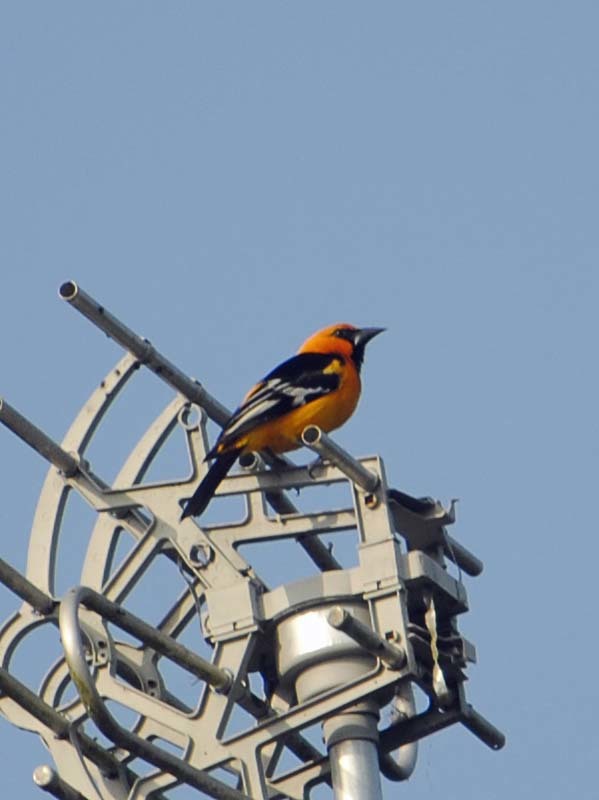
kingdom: Animalia
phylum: Chordata
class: Aves
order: Passeriformes
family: Icteridae
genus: Icterus
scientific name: Icterus gularis
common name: Altamira oriole
